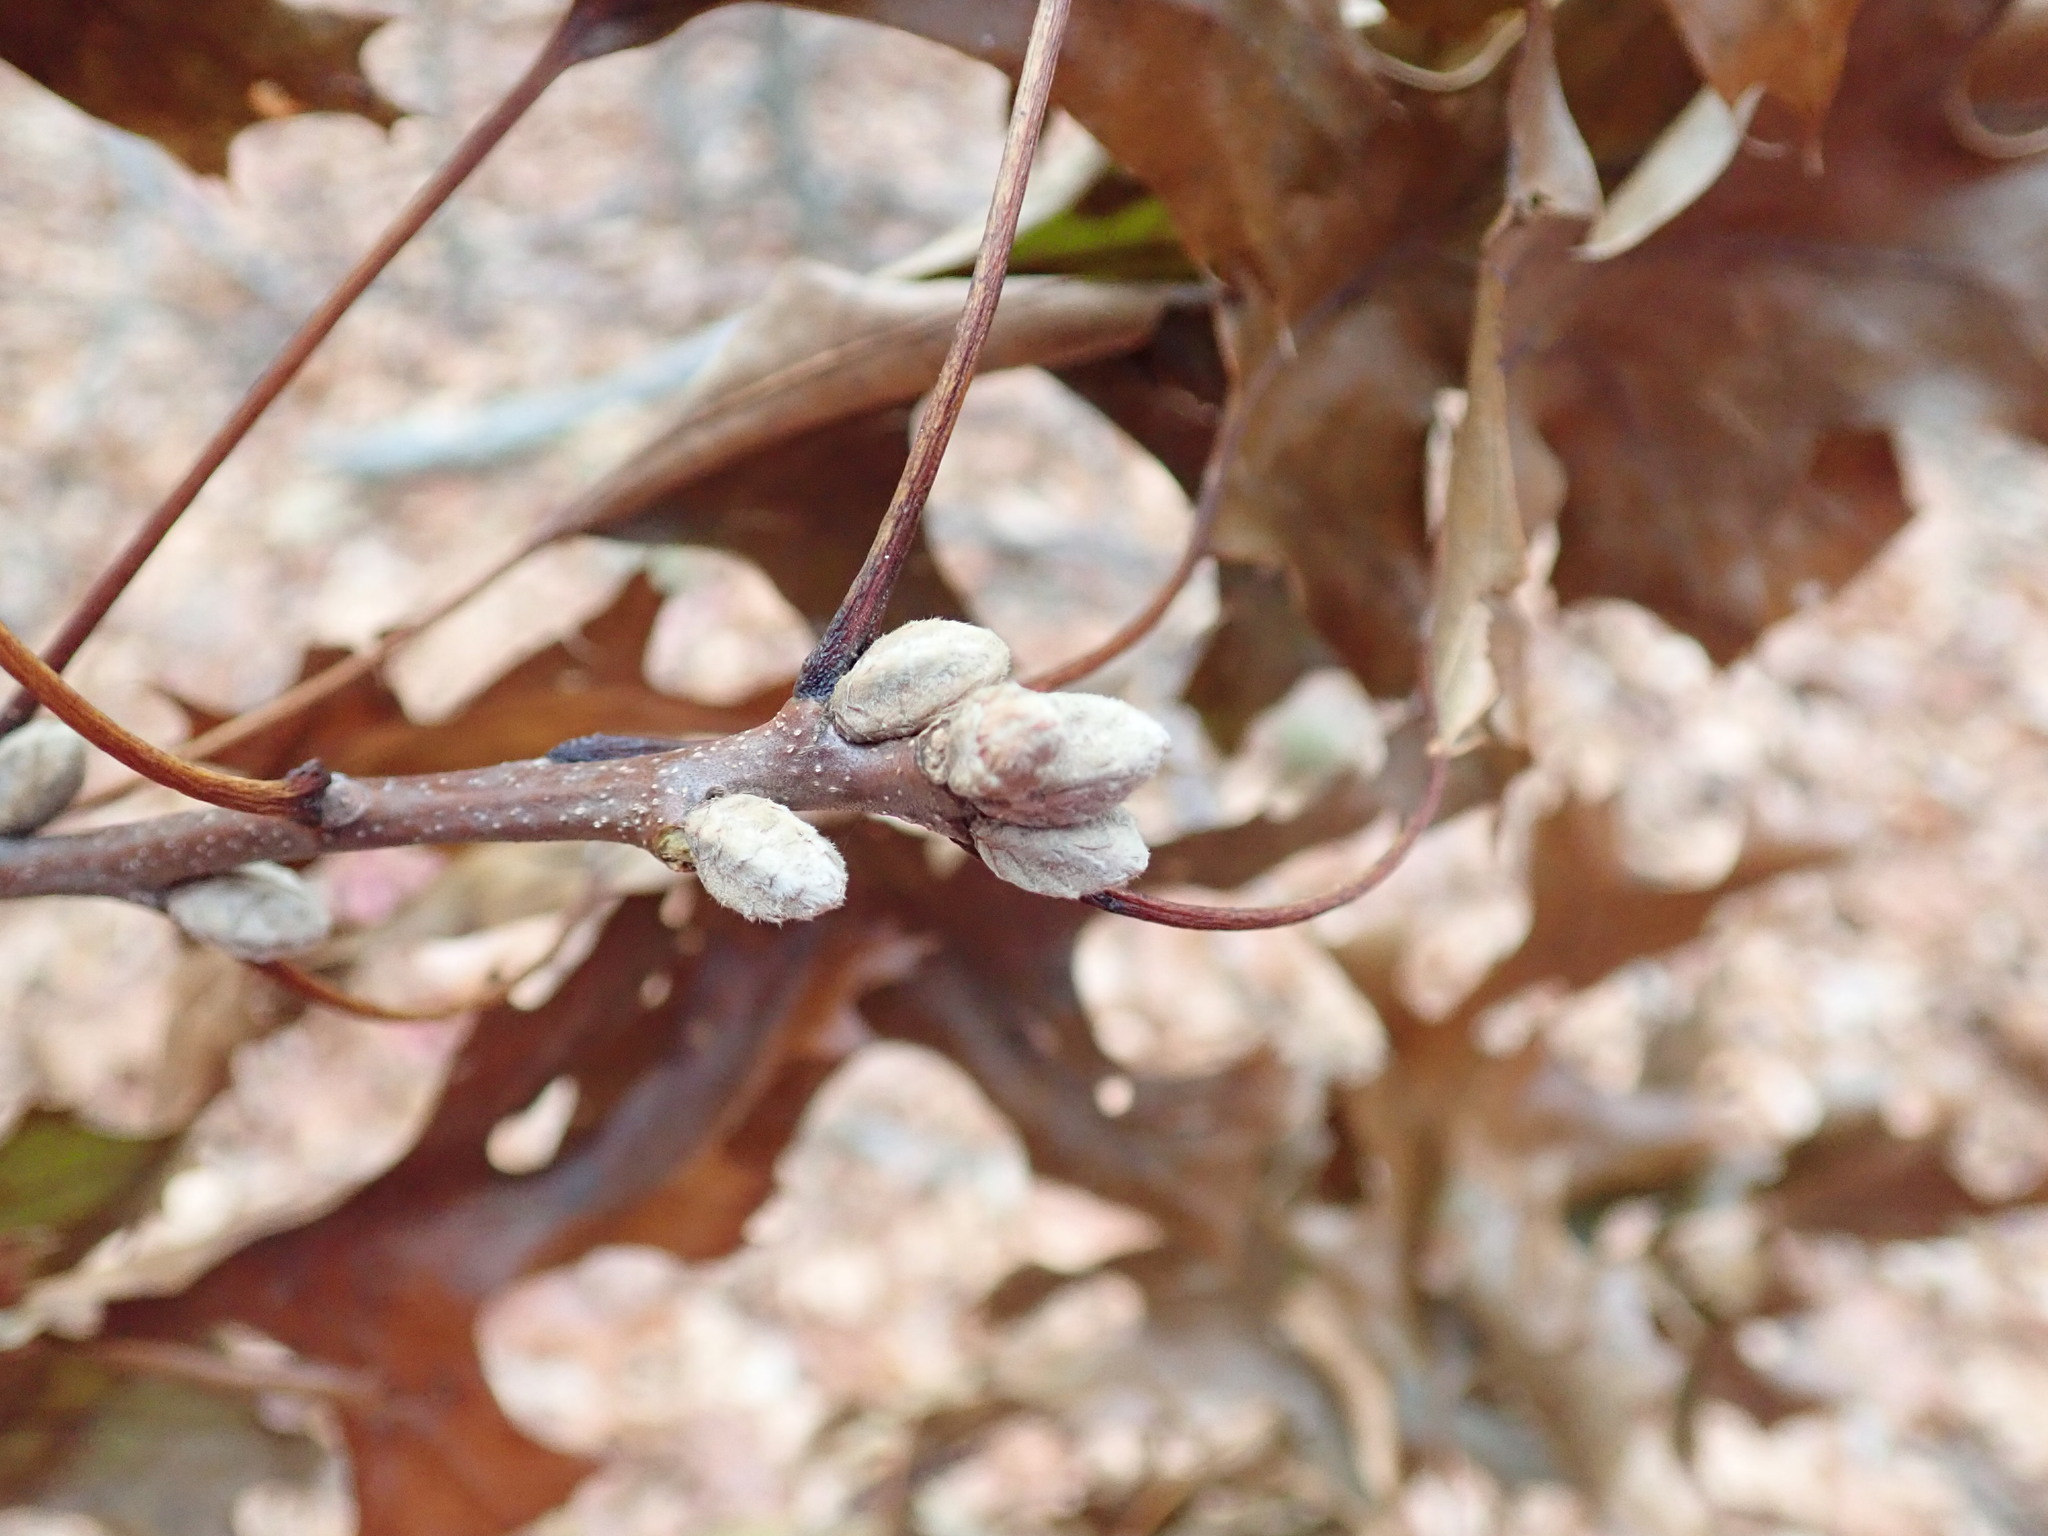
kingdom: Plantae
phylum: Tracheophyta
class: Magnoliopsida
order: Fagales
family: Fagaceae
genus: Quercus
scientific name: Quercus velutina
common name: Black oak
